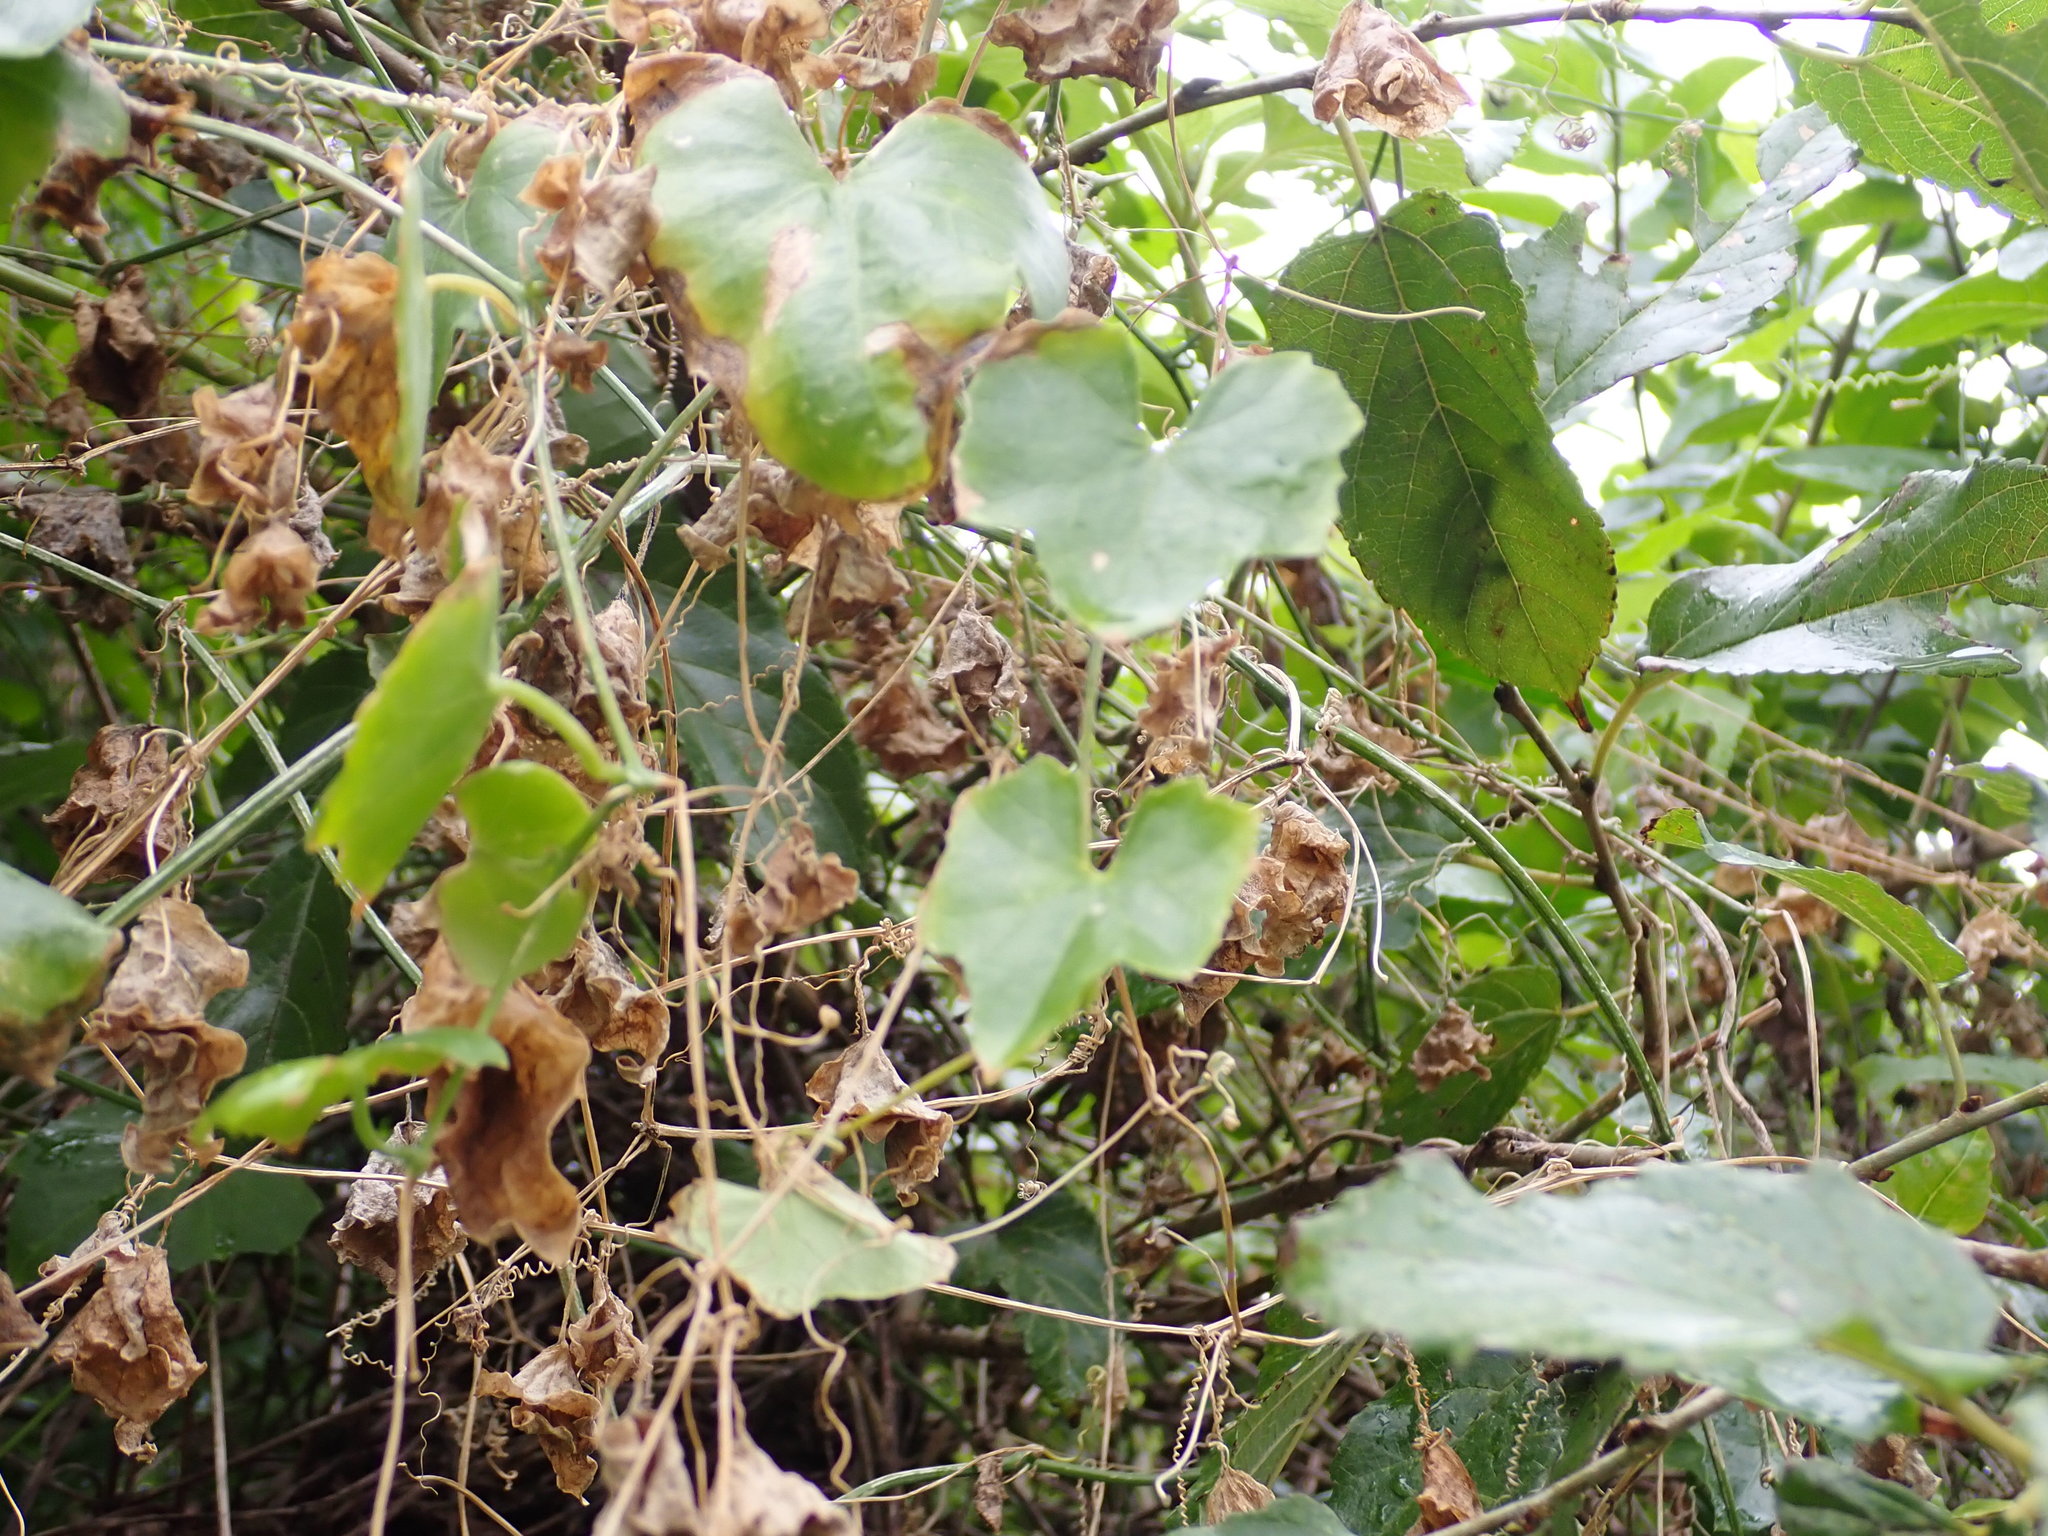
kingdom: Plantae
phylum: Tracheophyta
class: Magnoliopsida
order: Cucurbitales
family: Cucurbitaceae
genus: Melothria
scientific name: Melothria pendula
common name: Creeping-cucumber
